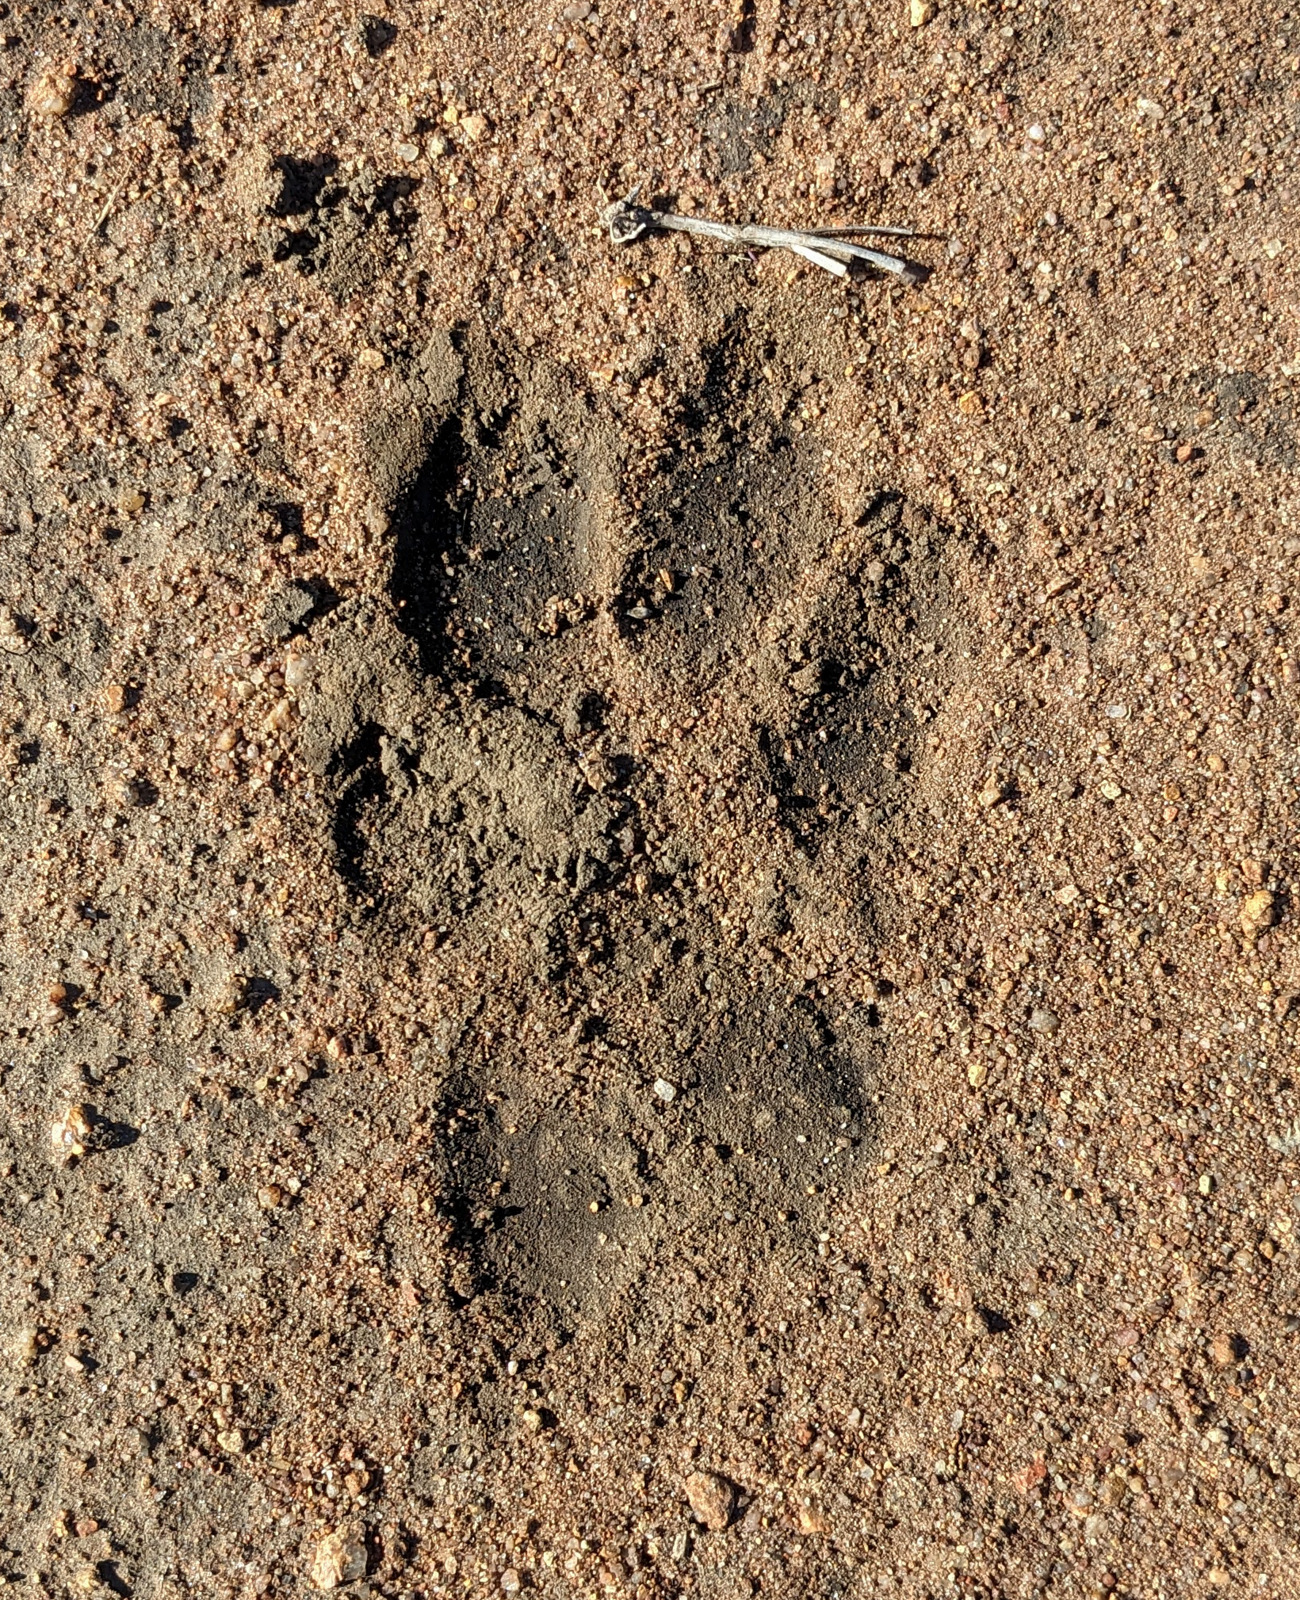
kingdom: Animalia
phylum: Chordata
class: Mammalia
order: Carnivora
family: Hyaenidae
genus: Crocuta
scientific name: Crocuta crocuta
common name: Spotted hyaena
